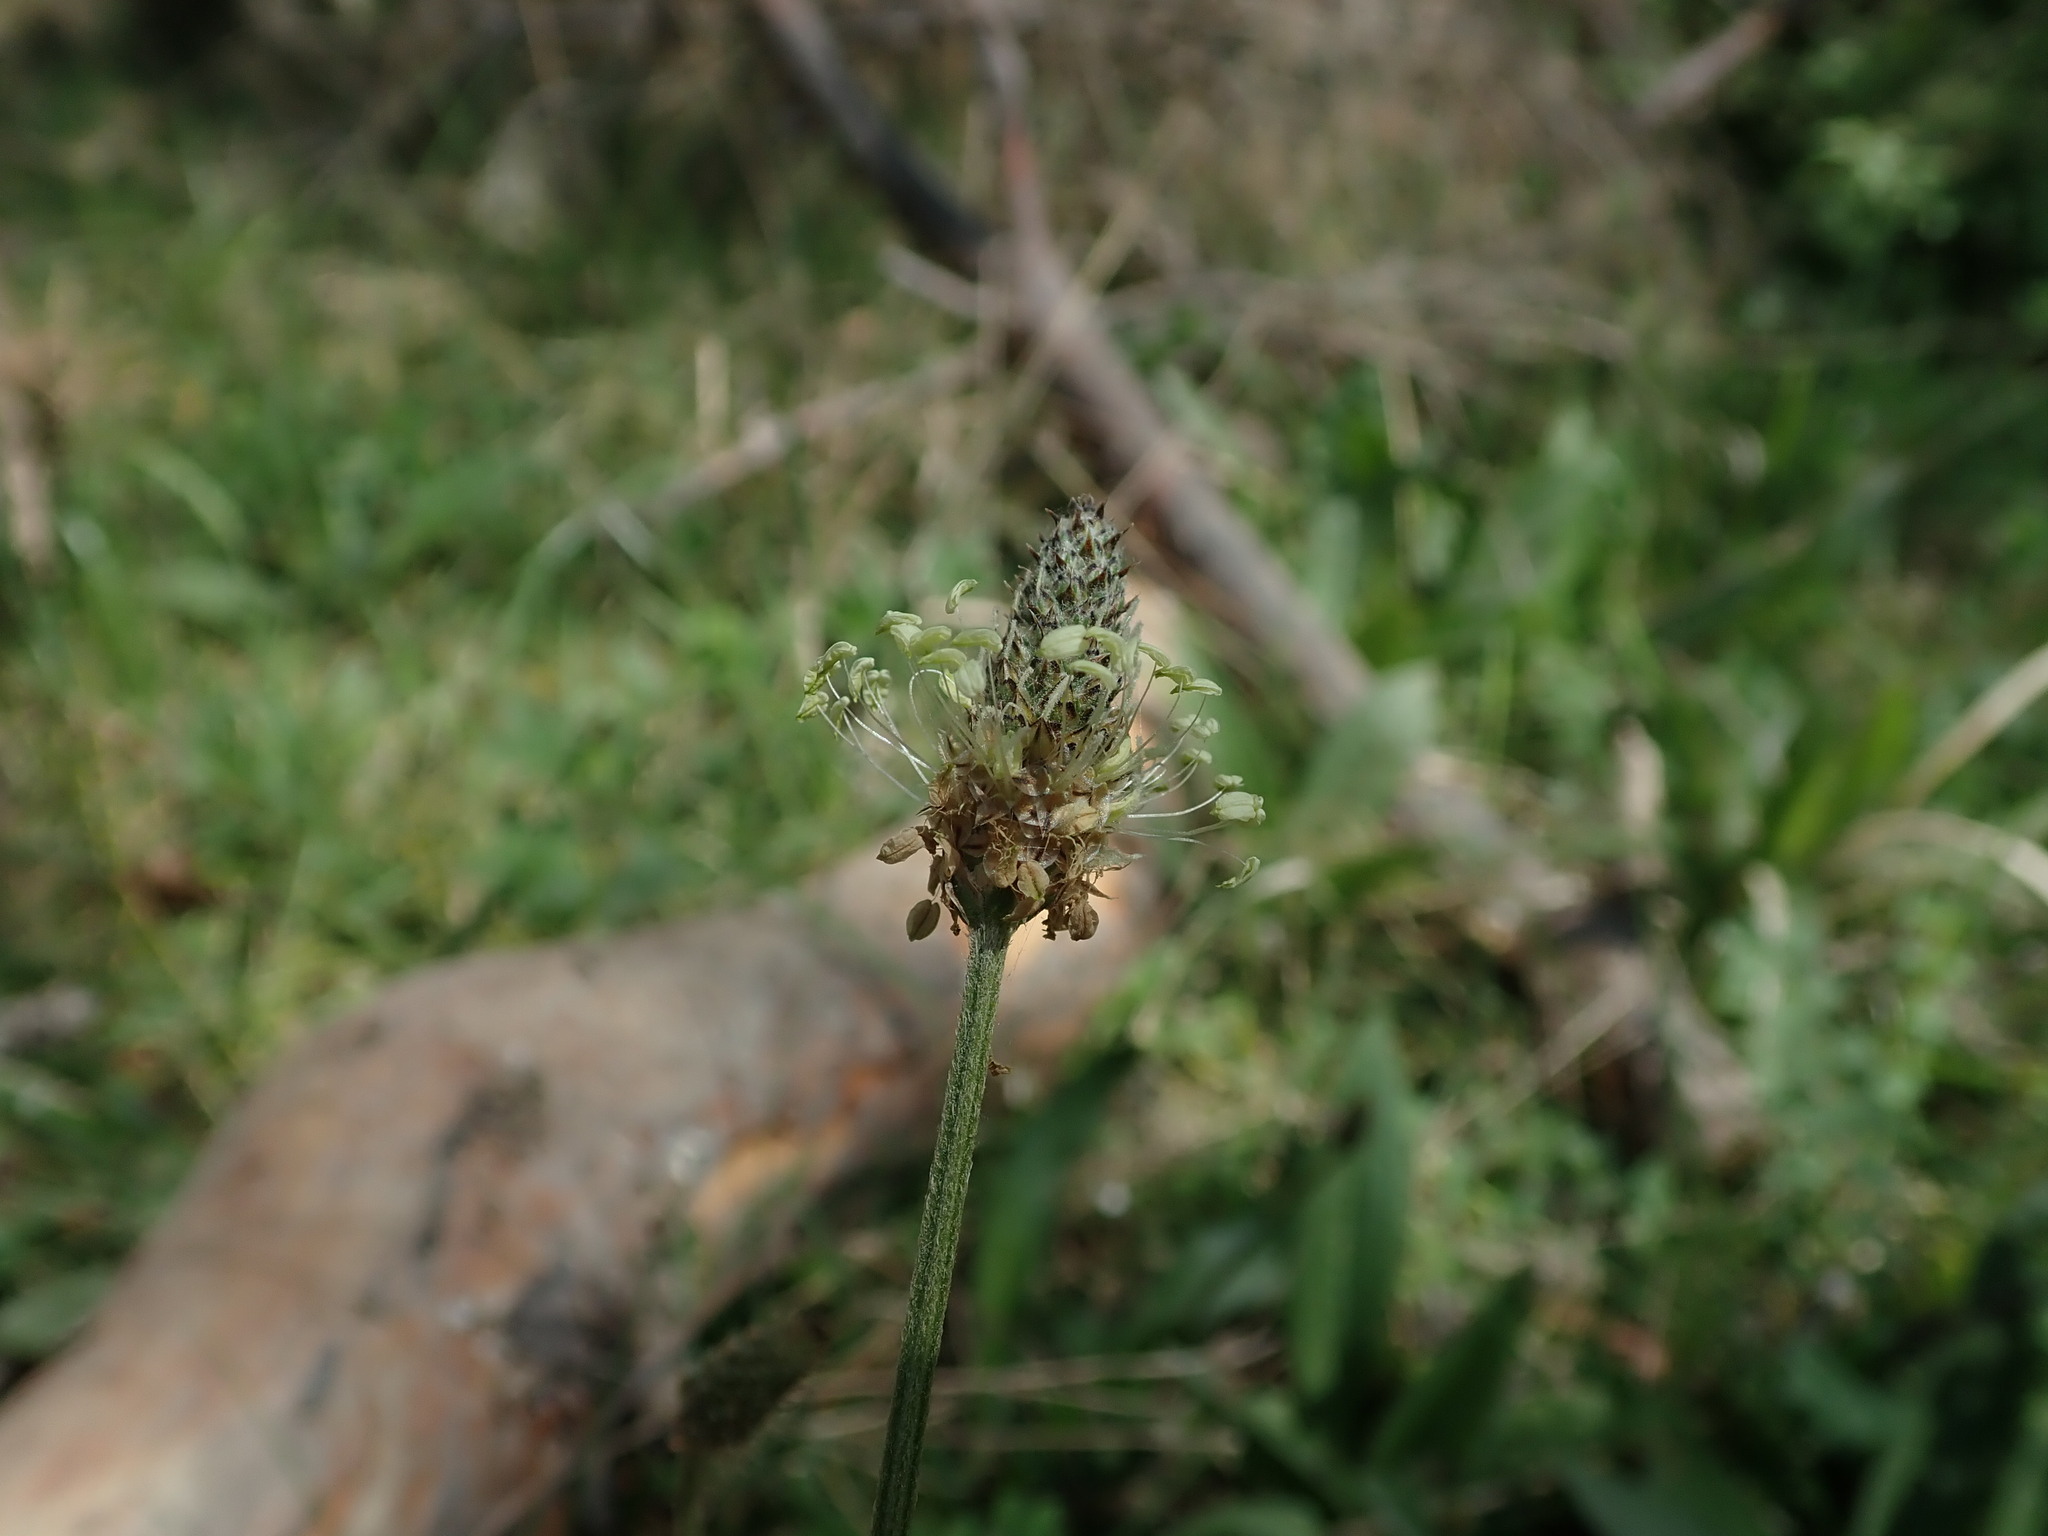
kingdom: Plantae
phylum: Tracheophyta
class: Magnoliopsida
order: Lamiales
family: Plantaginaceae
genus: Plantago
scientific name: Plantago lanceolata
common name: Ribwort plantain
